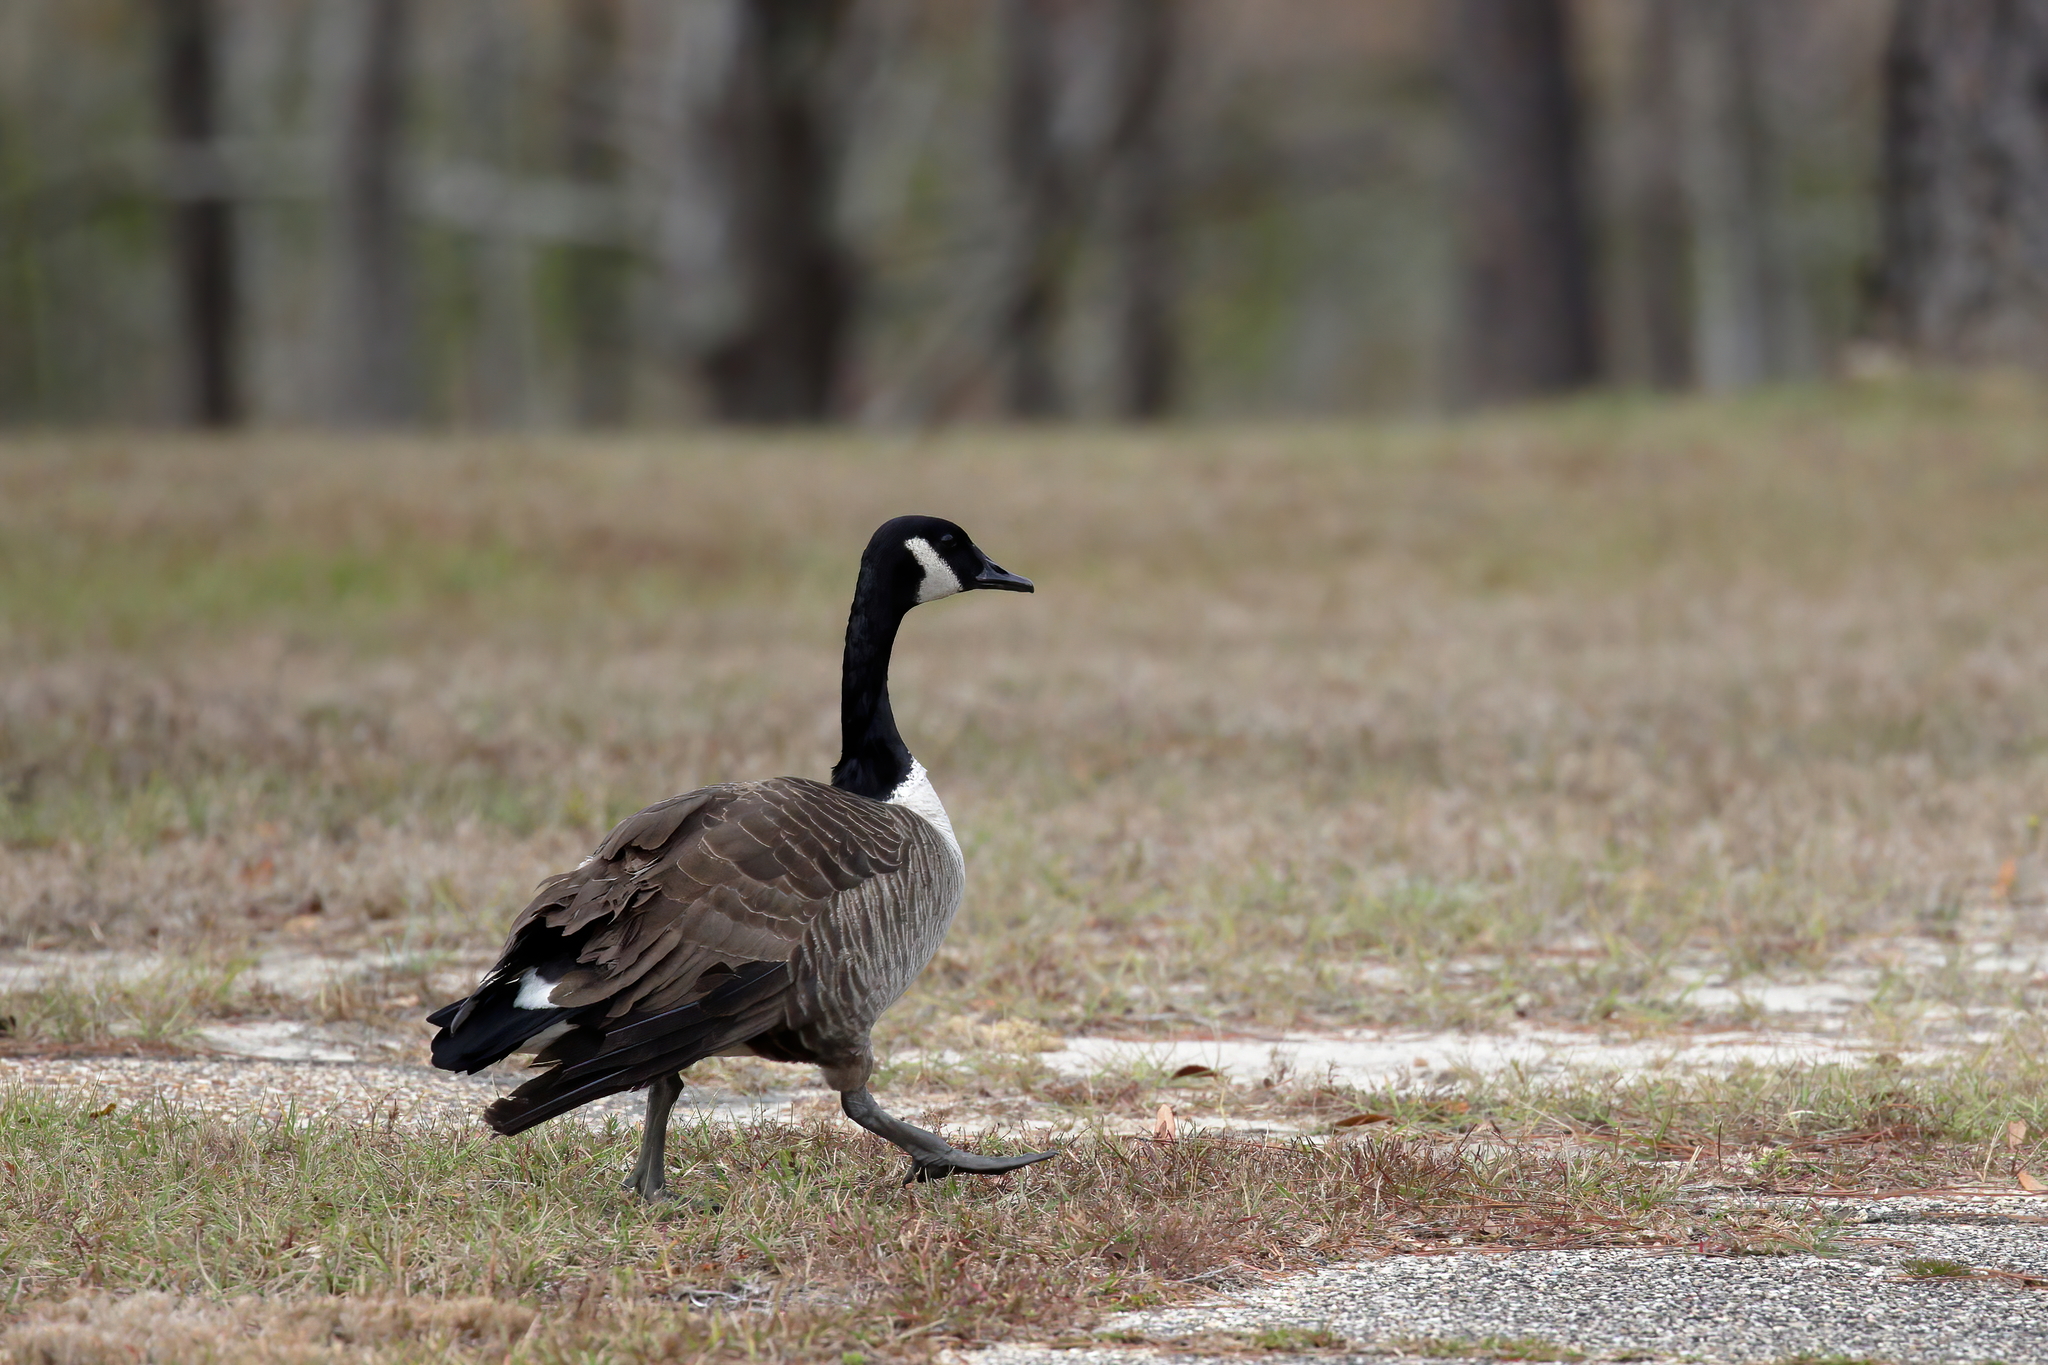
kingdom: Animalia
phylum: Chordata
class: Aves
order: Anseriformes
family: Anatidae
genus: Branta
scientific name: Branta canadensis
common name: Canada goose
